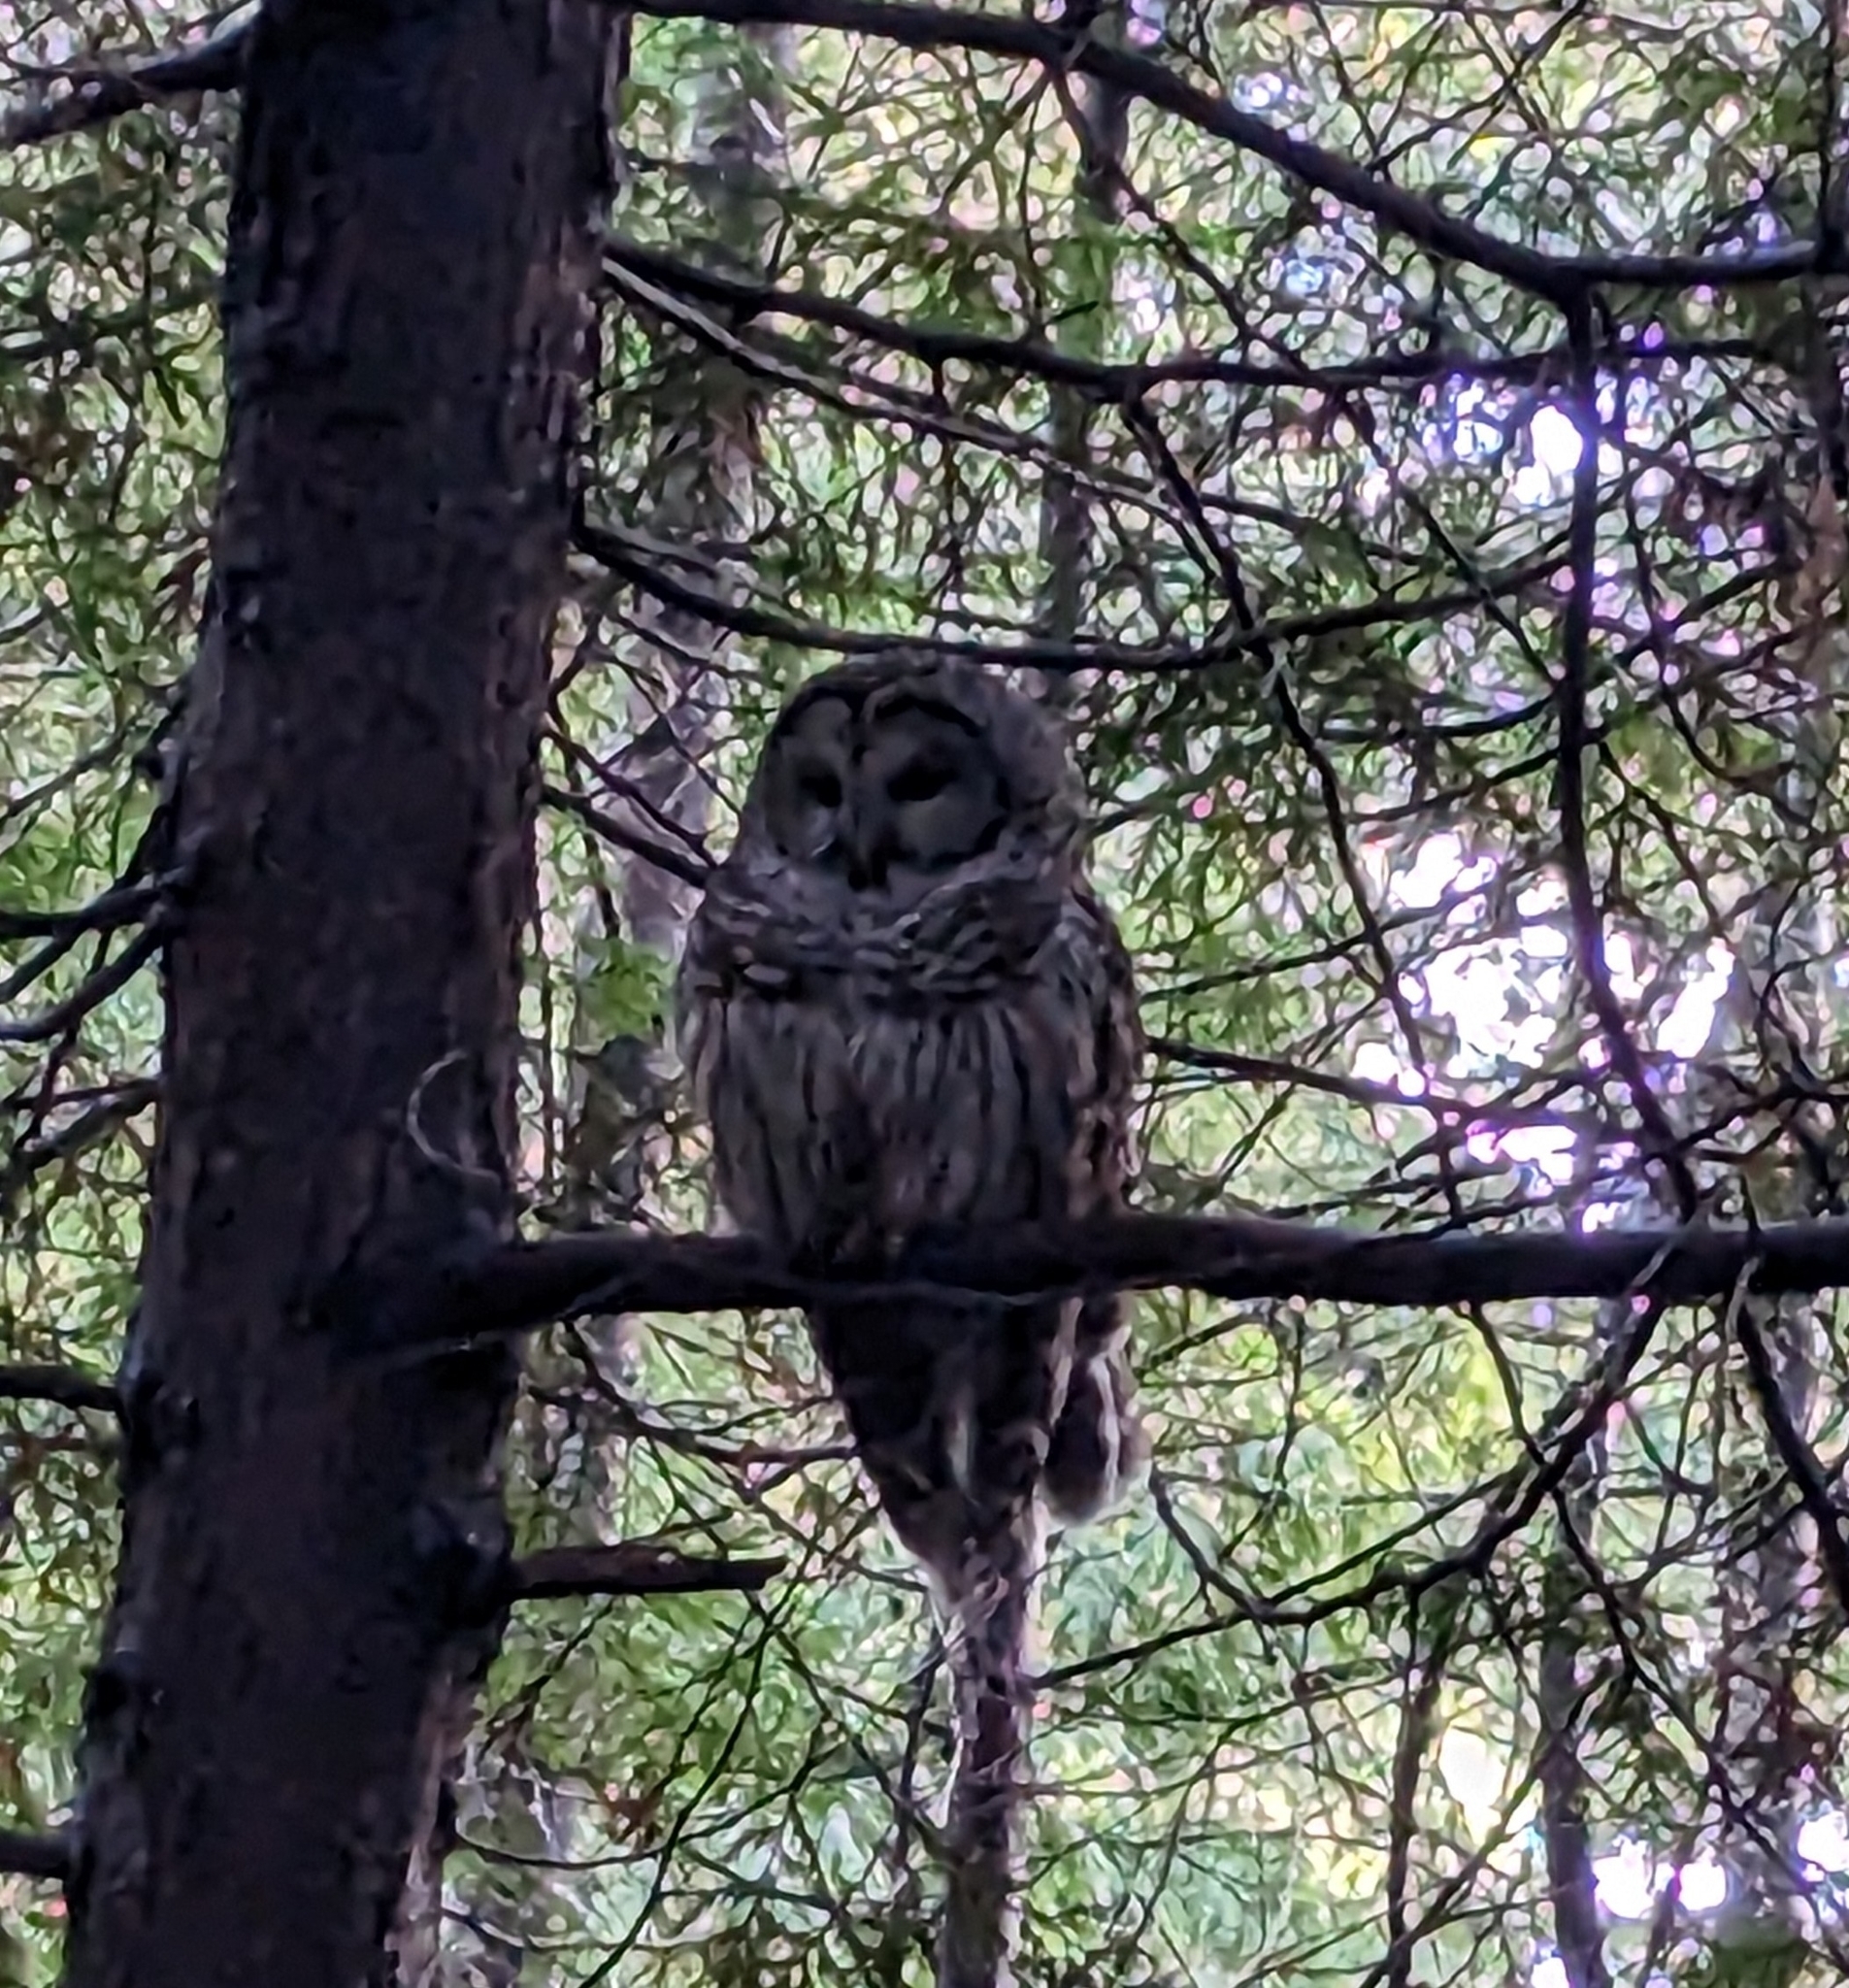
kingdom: Animalia
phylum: Chordata
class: Aves
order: Strigiformes
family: Strigidae
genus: Strix
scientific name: Strix varia
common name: Barred owl
